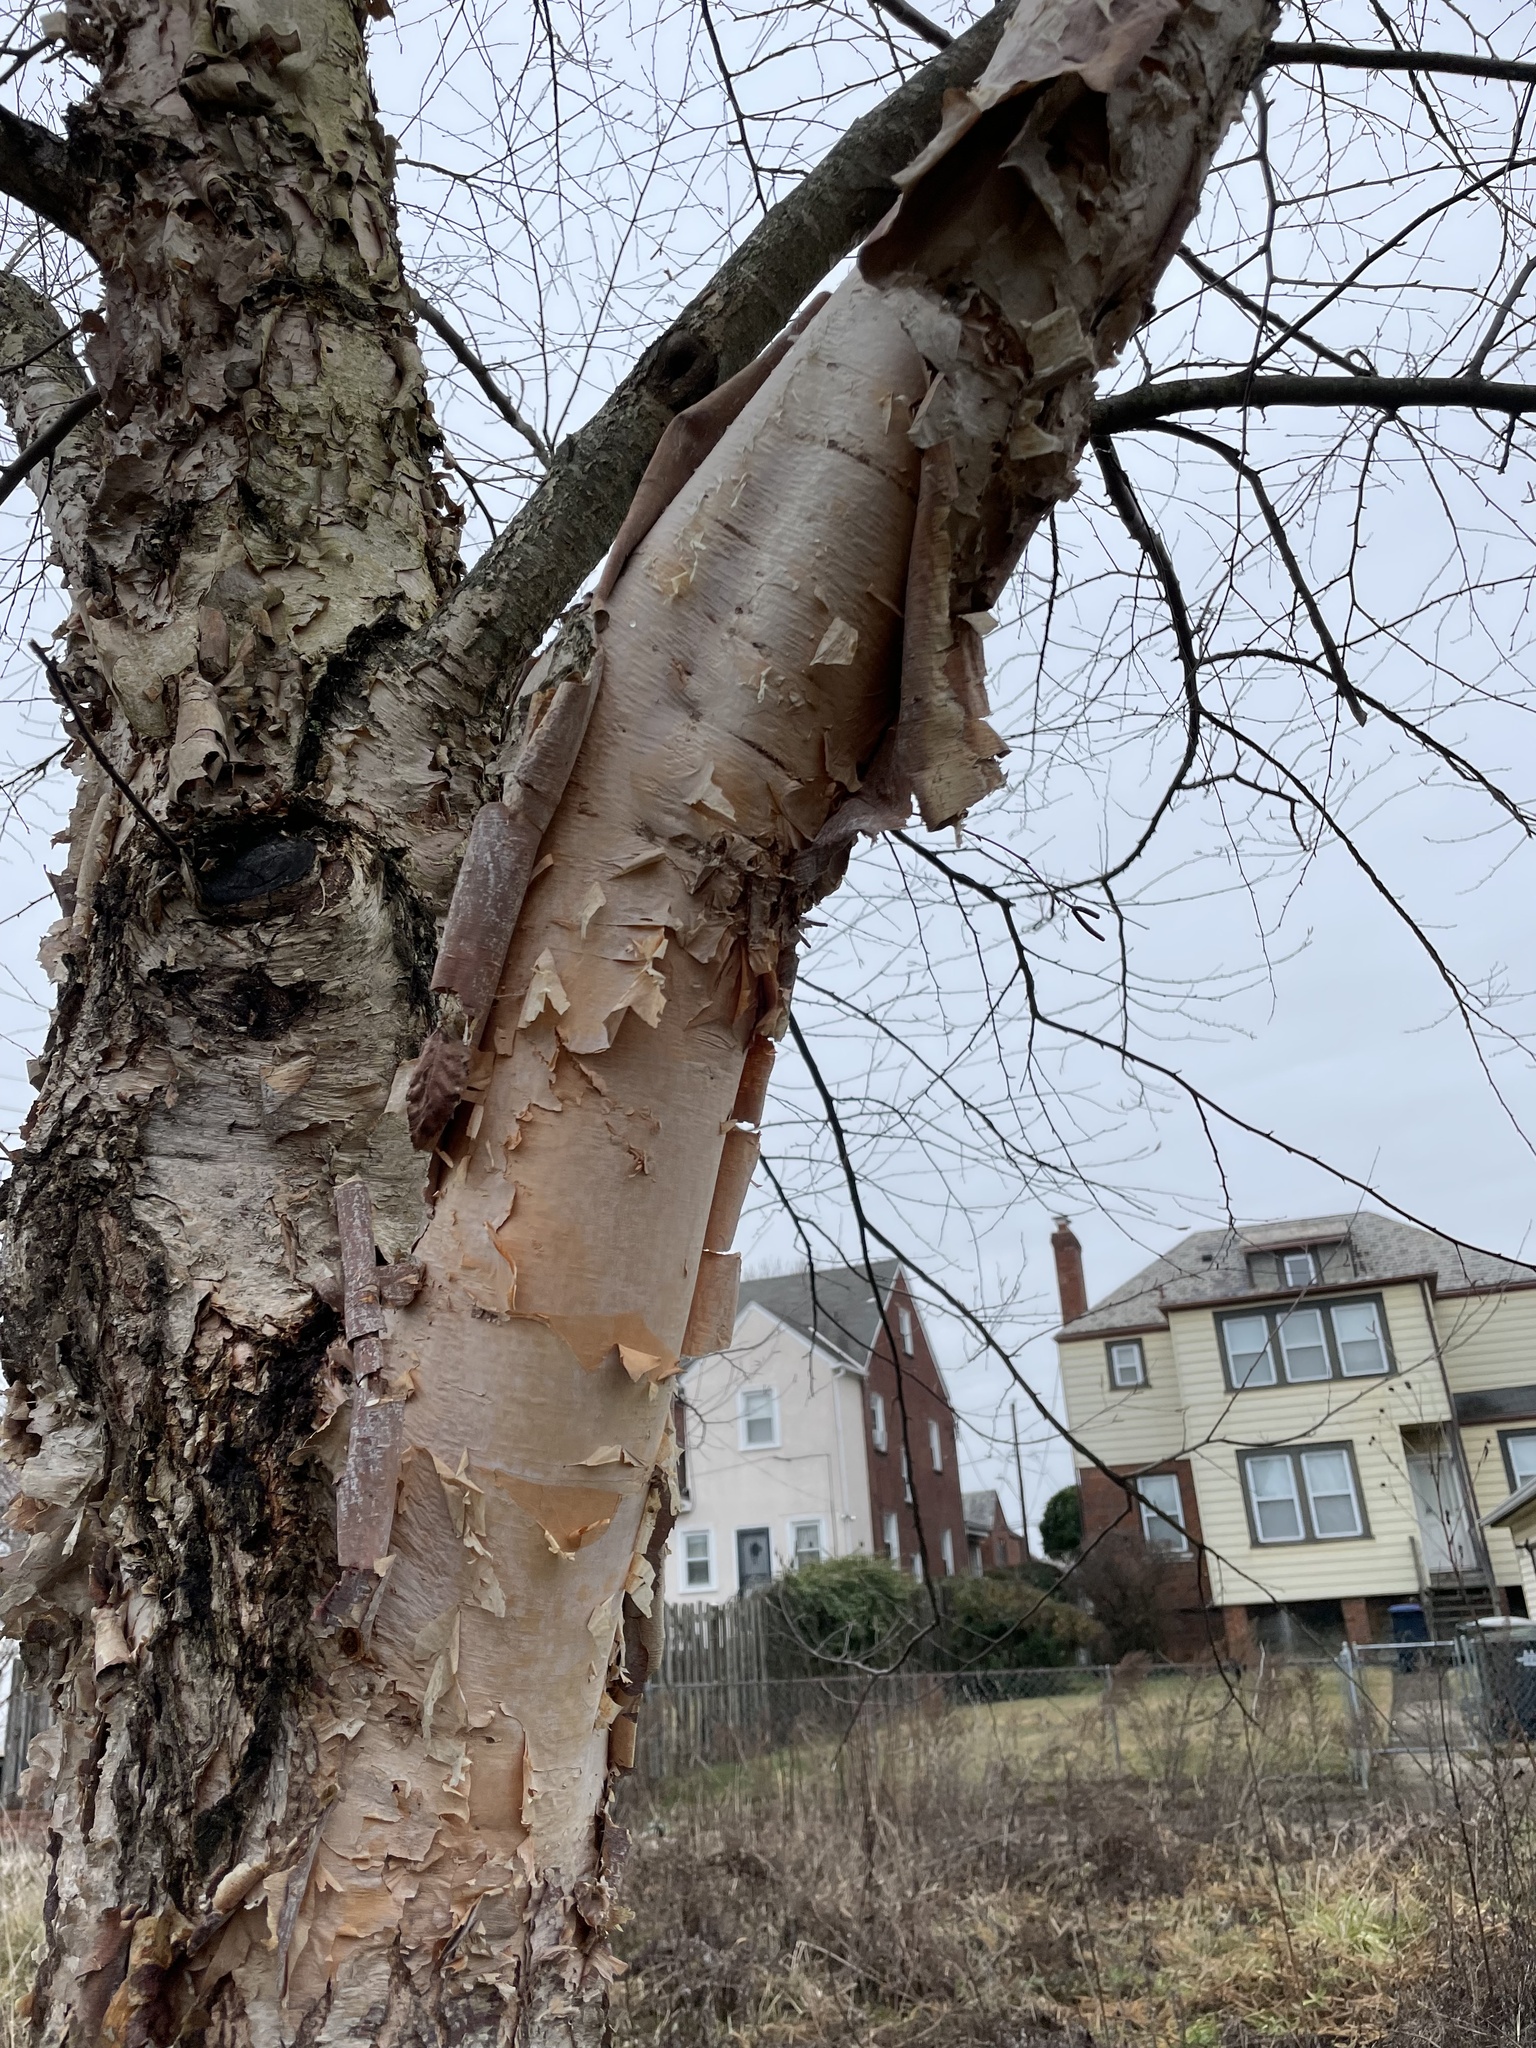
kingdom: Plantae
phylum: Tracheophyta
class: Magnoliopsida
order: Fagales
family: Betulaceae
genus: Betula
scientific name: Betula nigra
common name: Black birch
